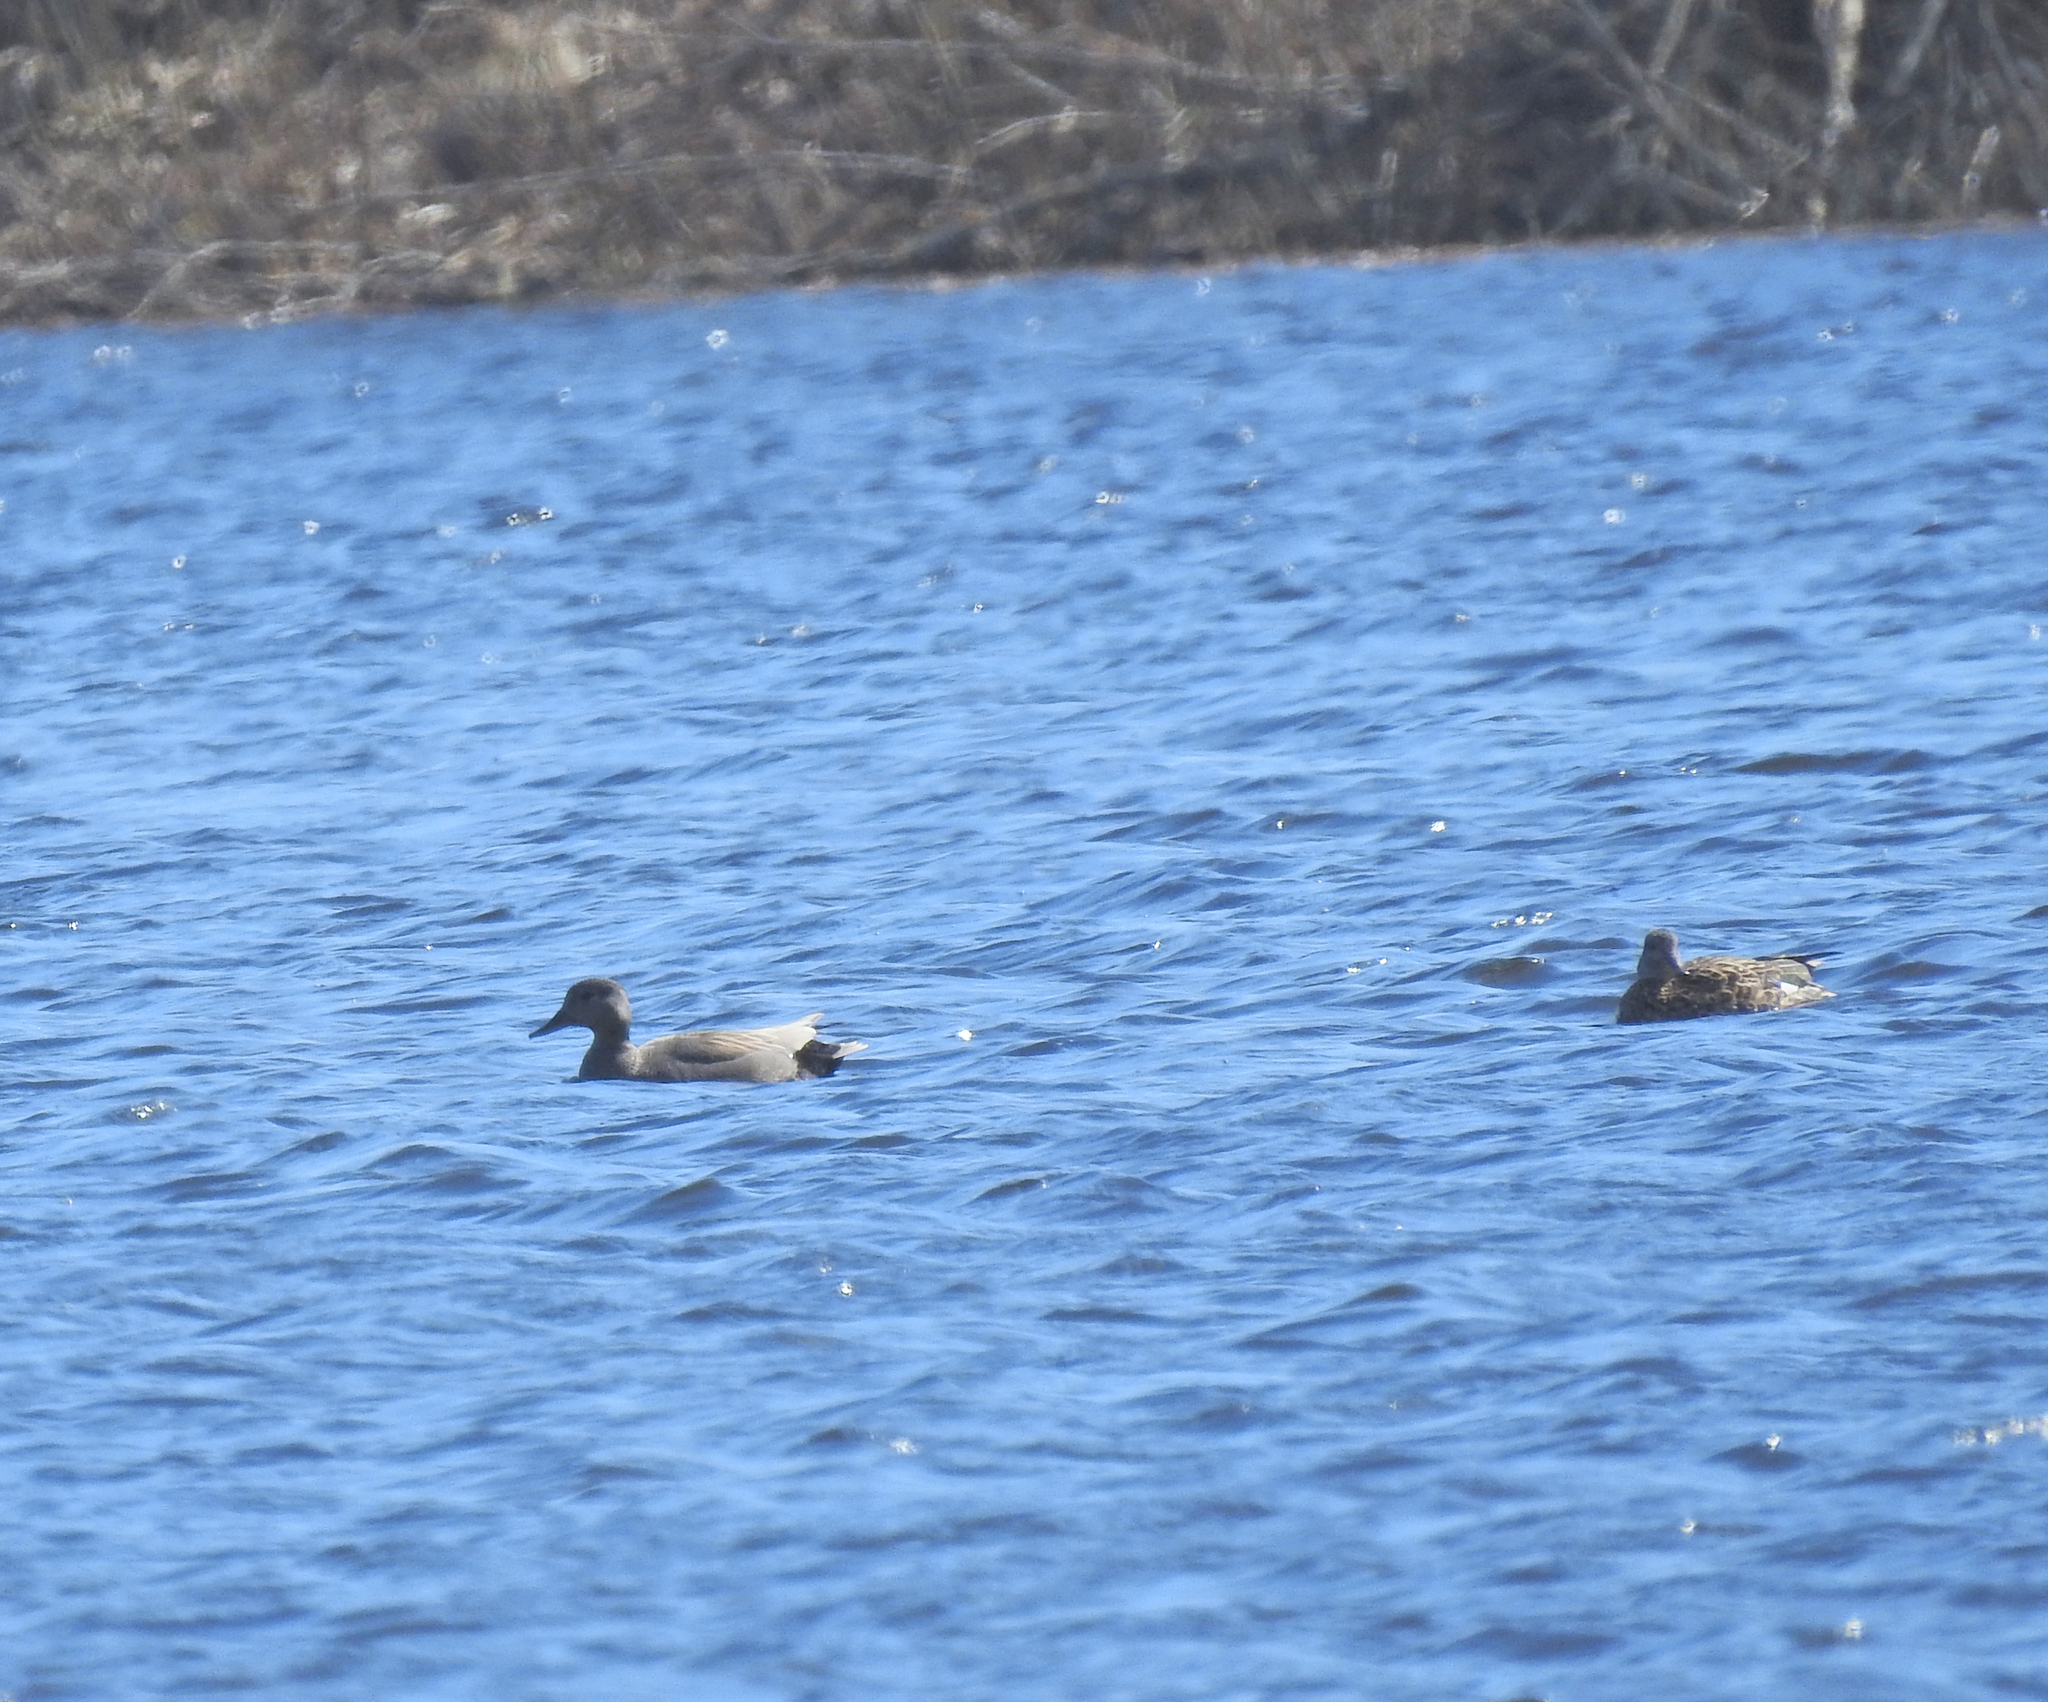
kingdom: Animalia
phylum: Chordata
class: Aves
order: Anseriformes
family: Anatidae
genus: Mareca
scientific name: Mareca strepera
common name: Gadwall
